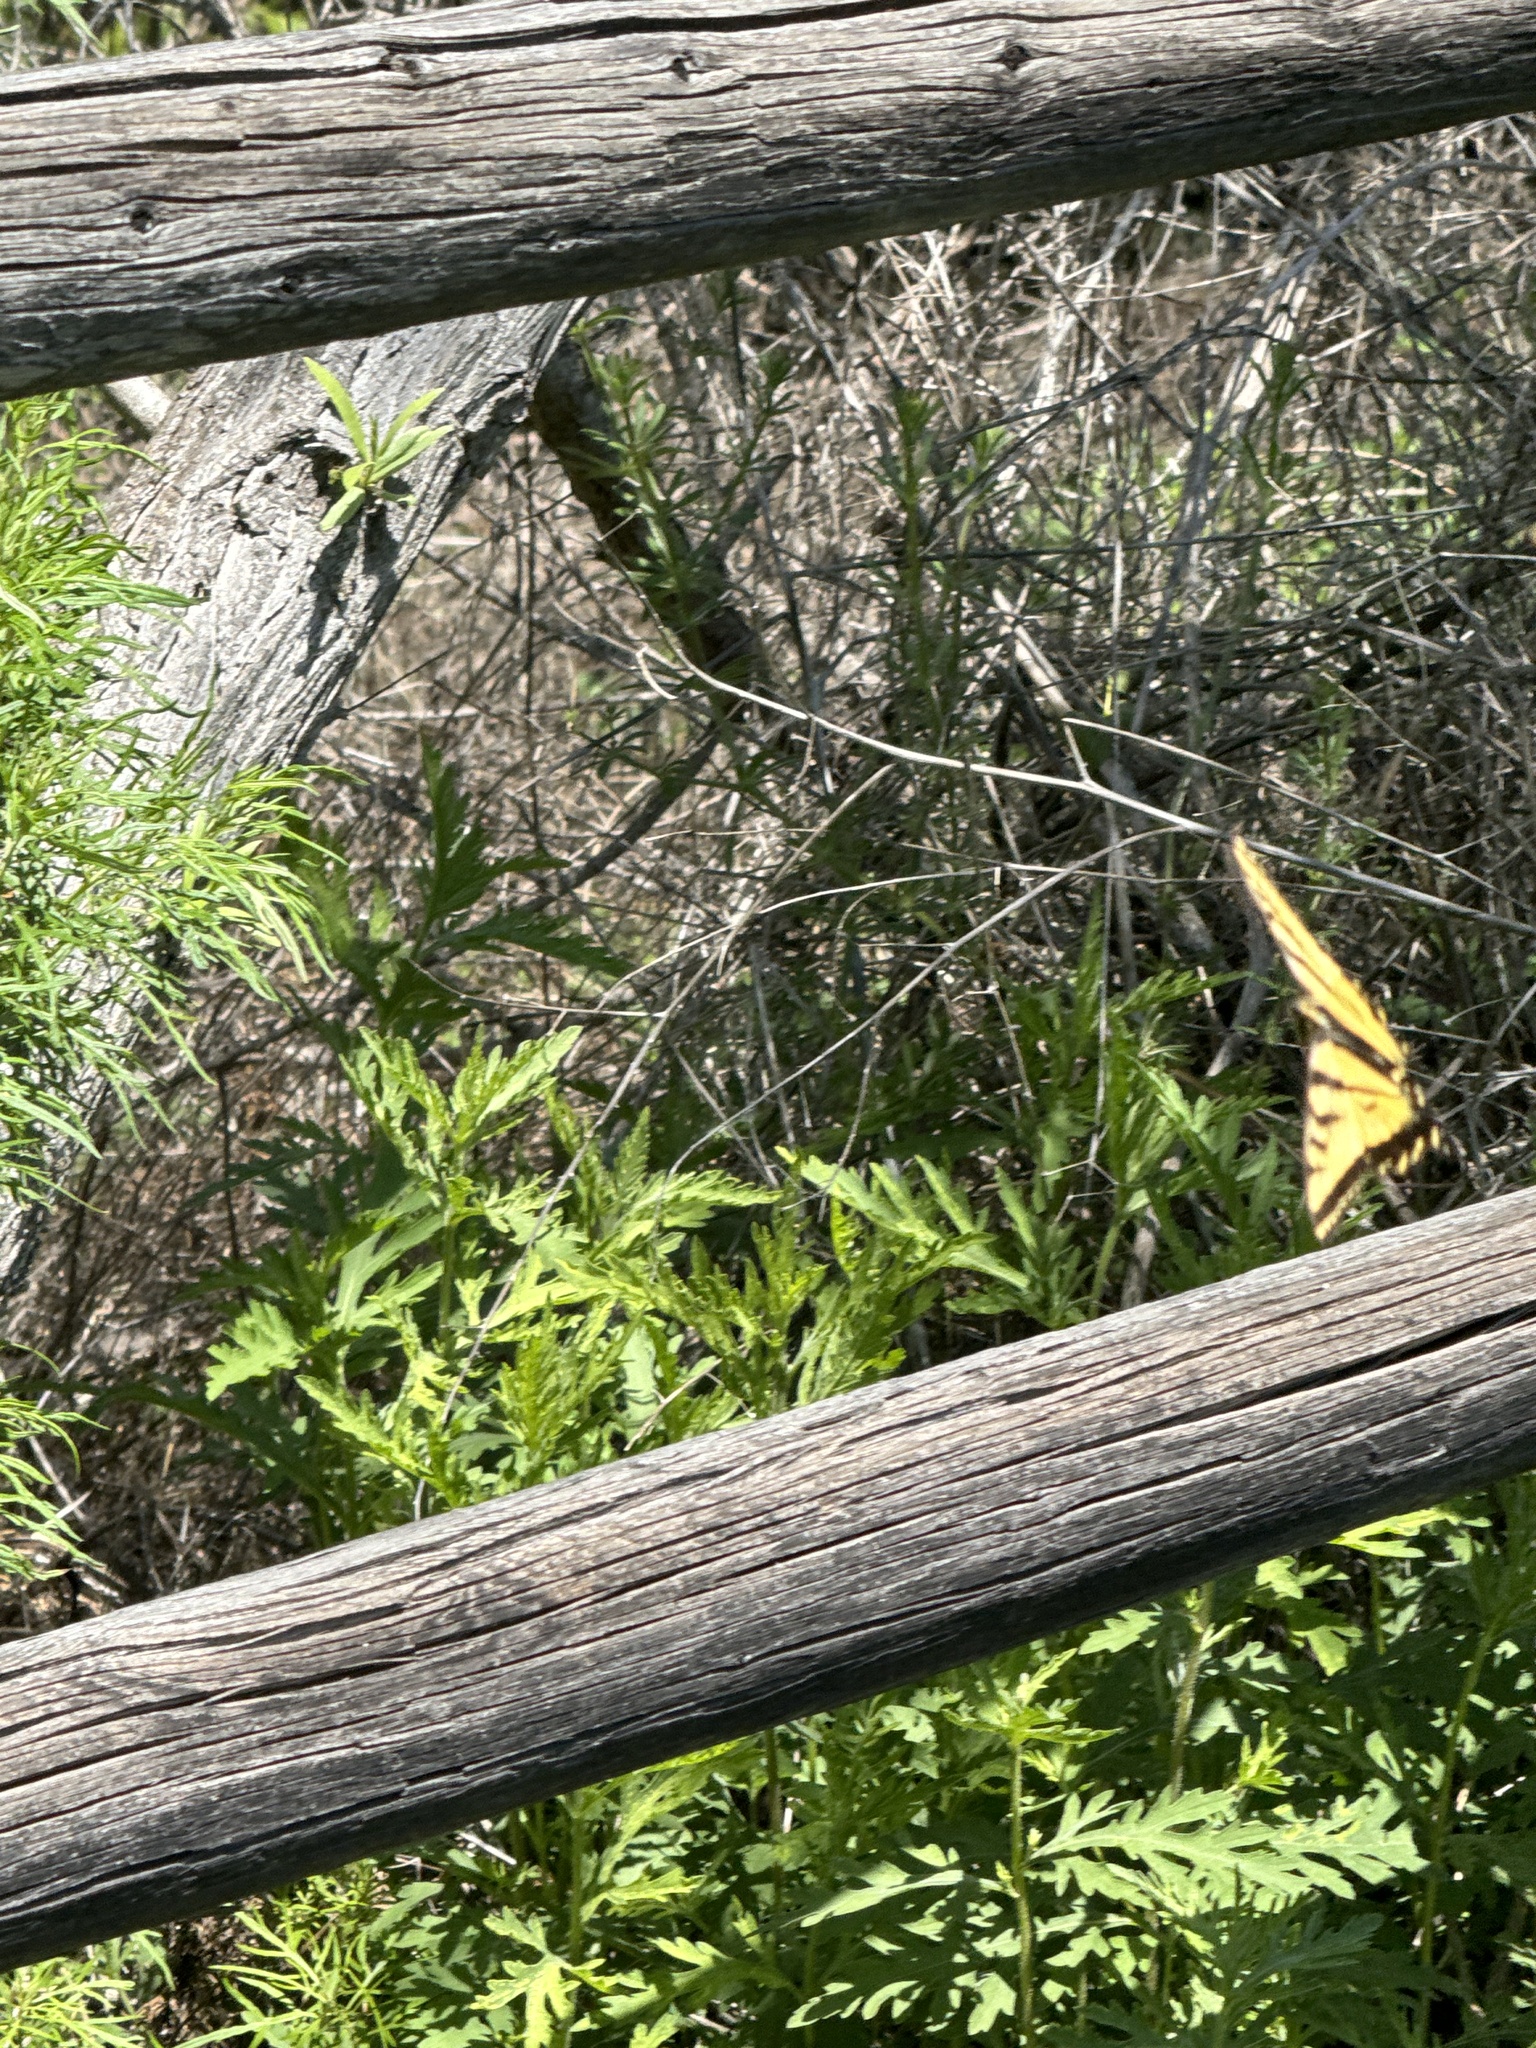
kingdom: Animalia
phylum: Arthropoda
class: Insecta
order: Lepidoptera
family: Papilionidae
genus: Papilio
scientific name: Papilio rutulus
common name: Western tiger swallowtail
